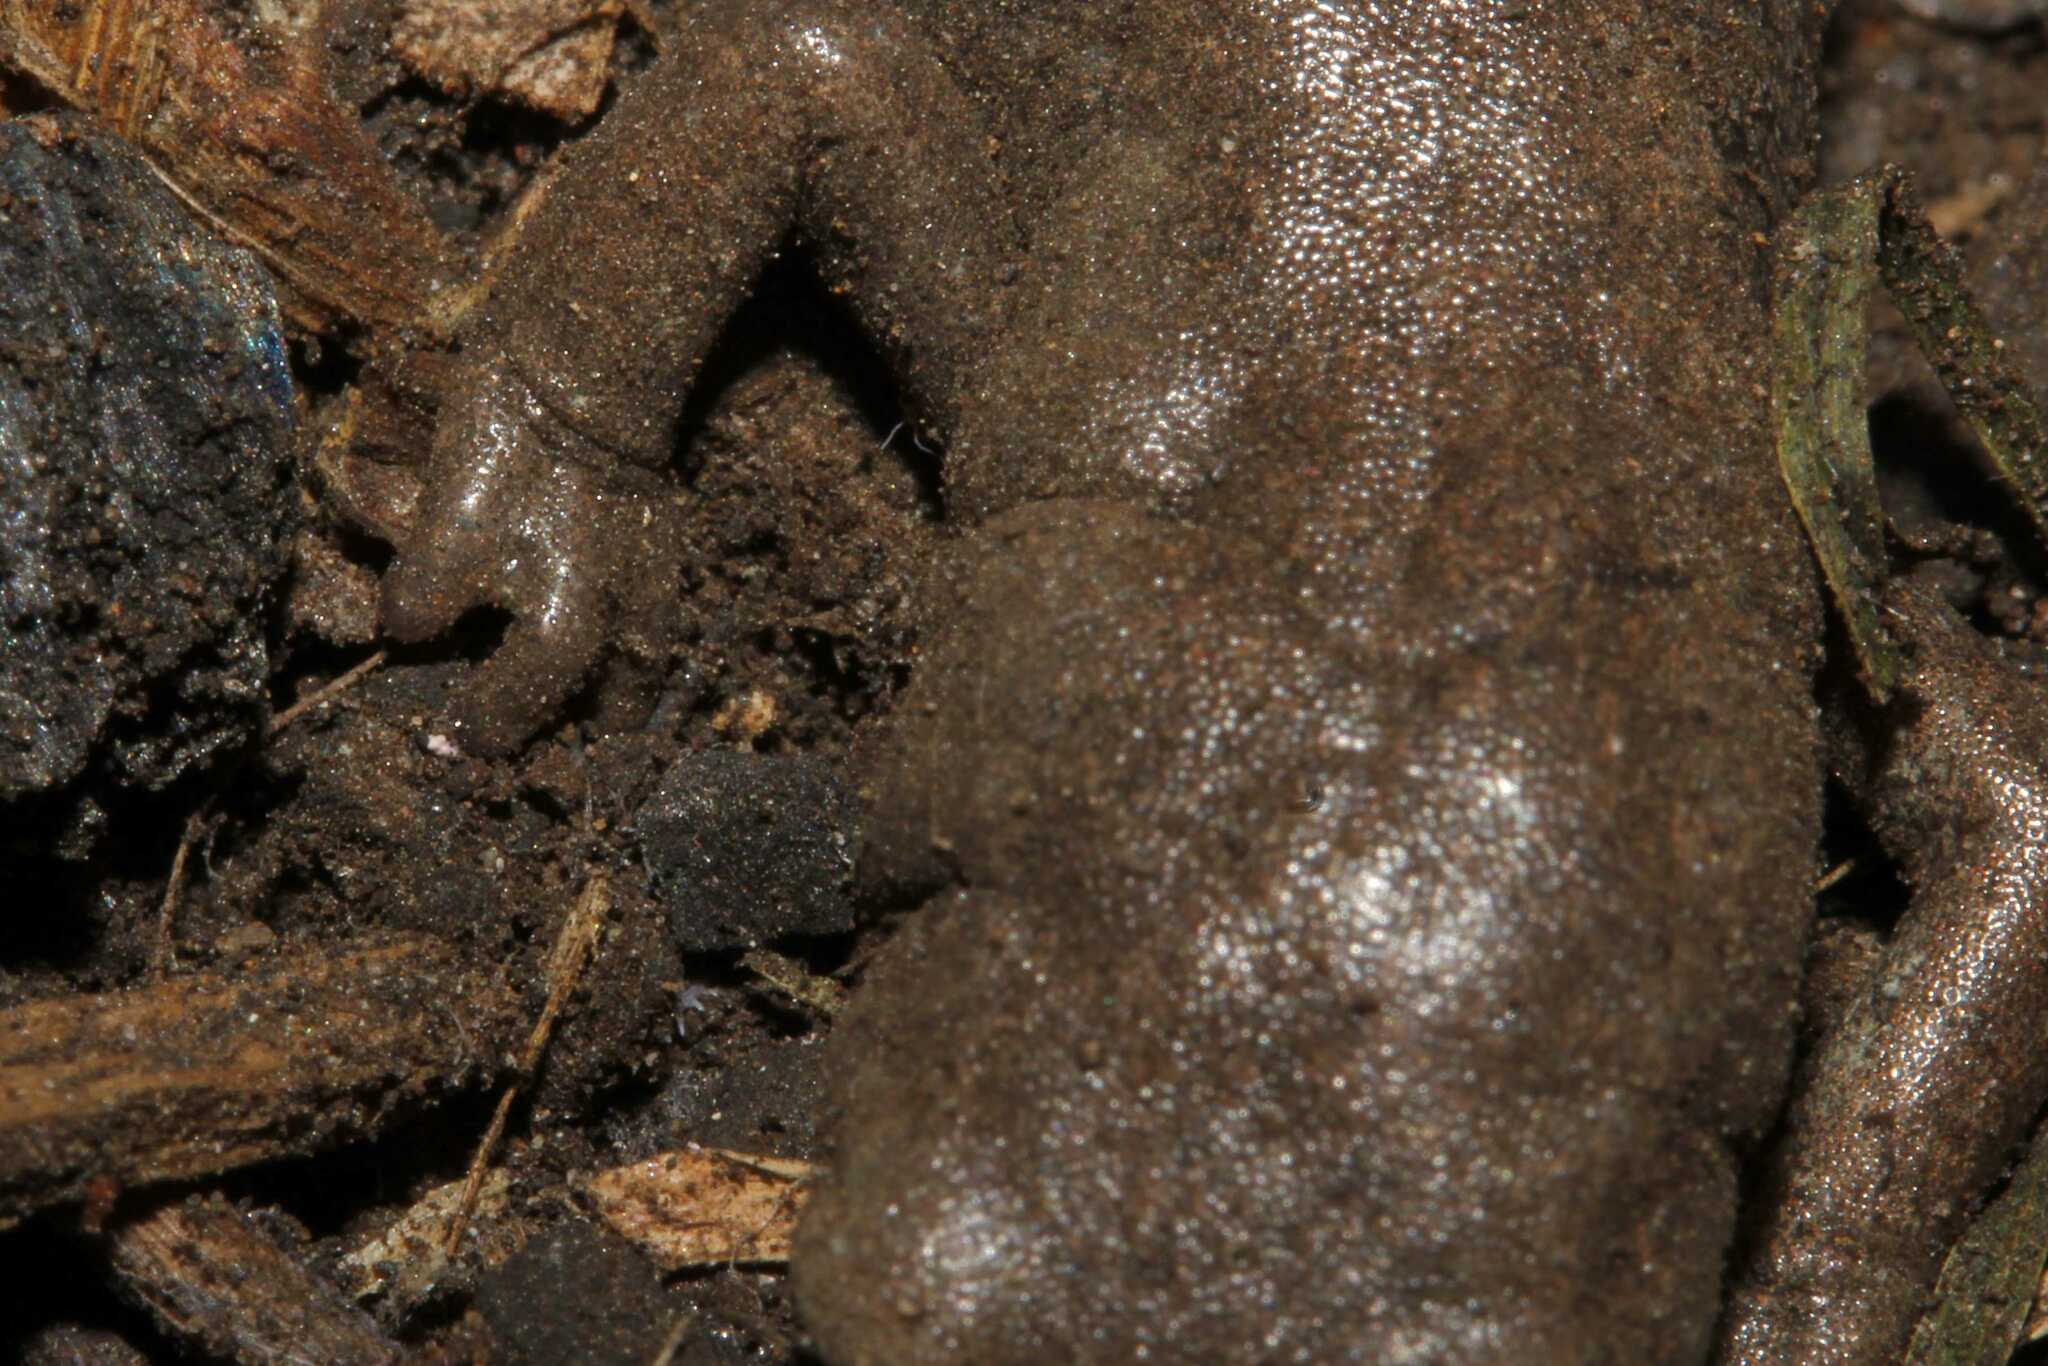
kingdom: Animalia
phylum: Chordata
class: Amphibia
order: Caudata
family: Plethodontidae
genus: Aquiloeurycea
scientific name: Aquiloeurycea cephalica
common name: Chunky false brook salamander
